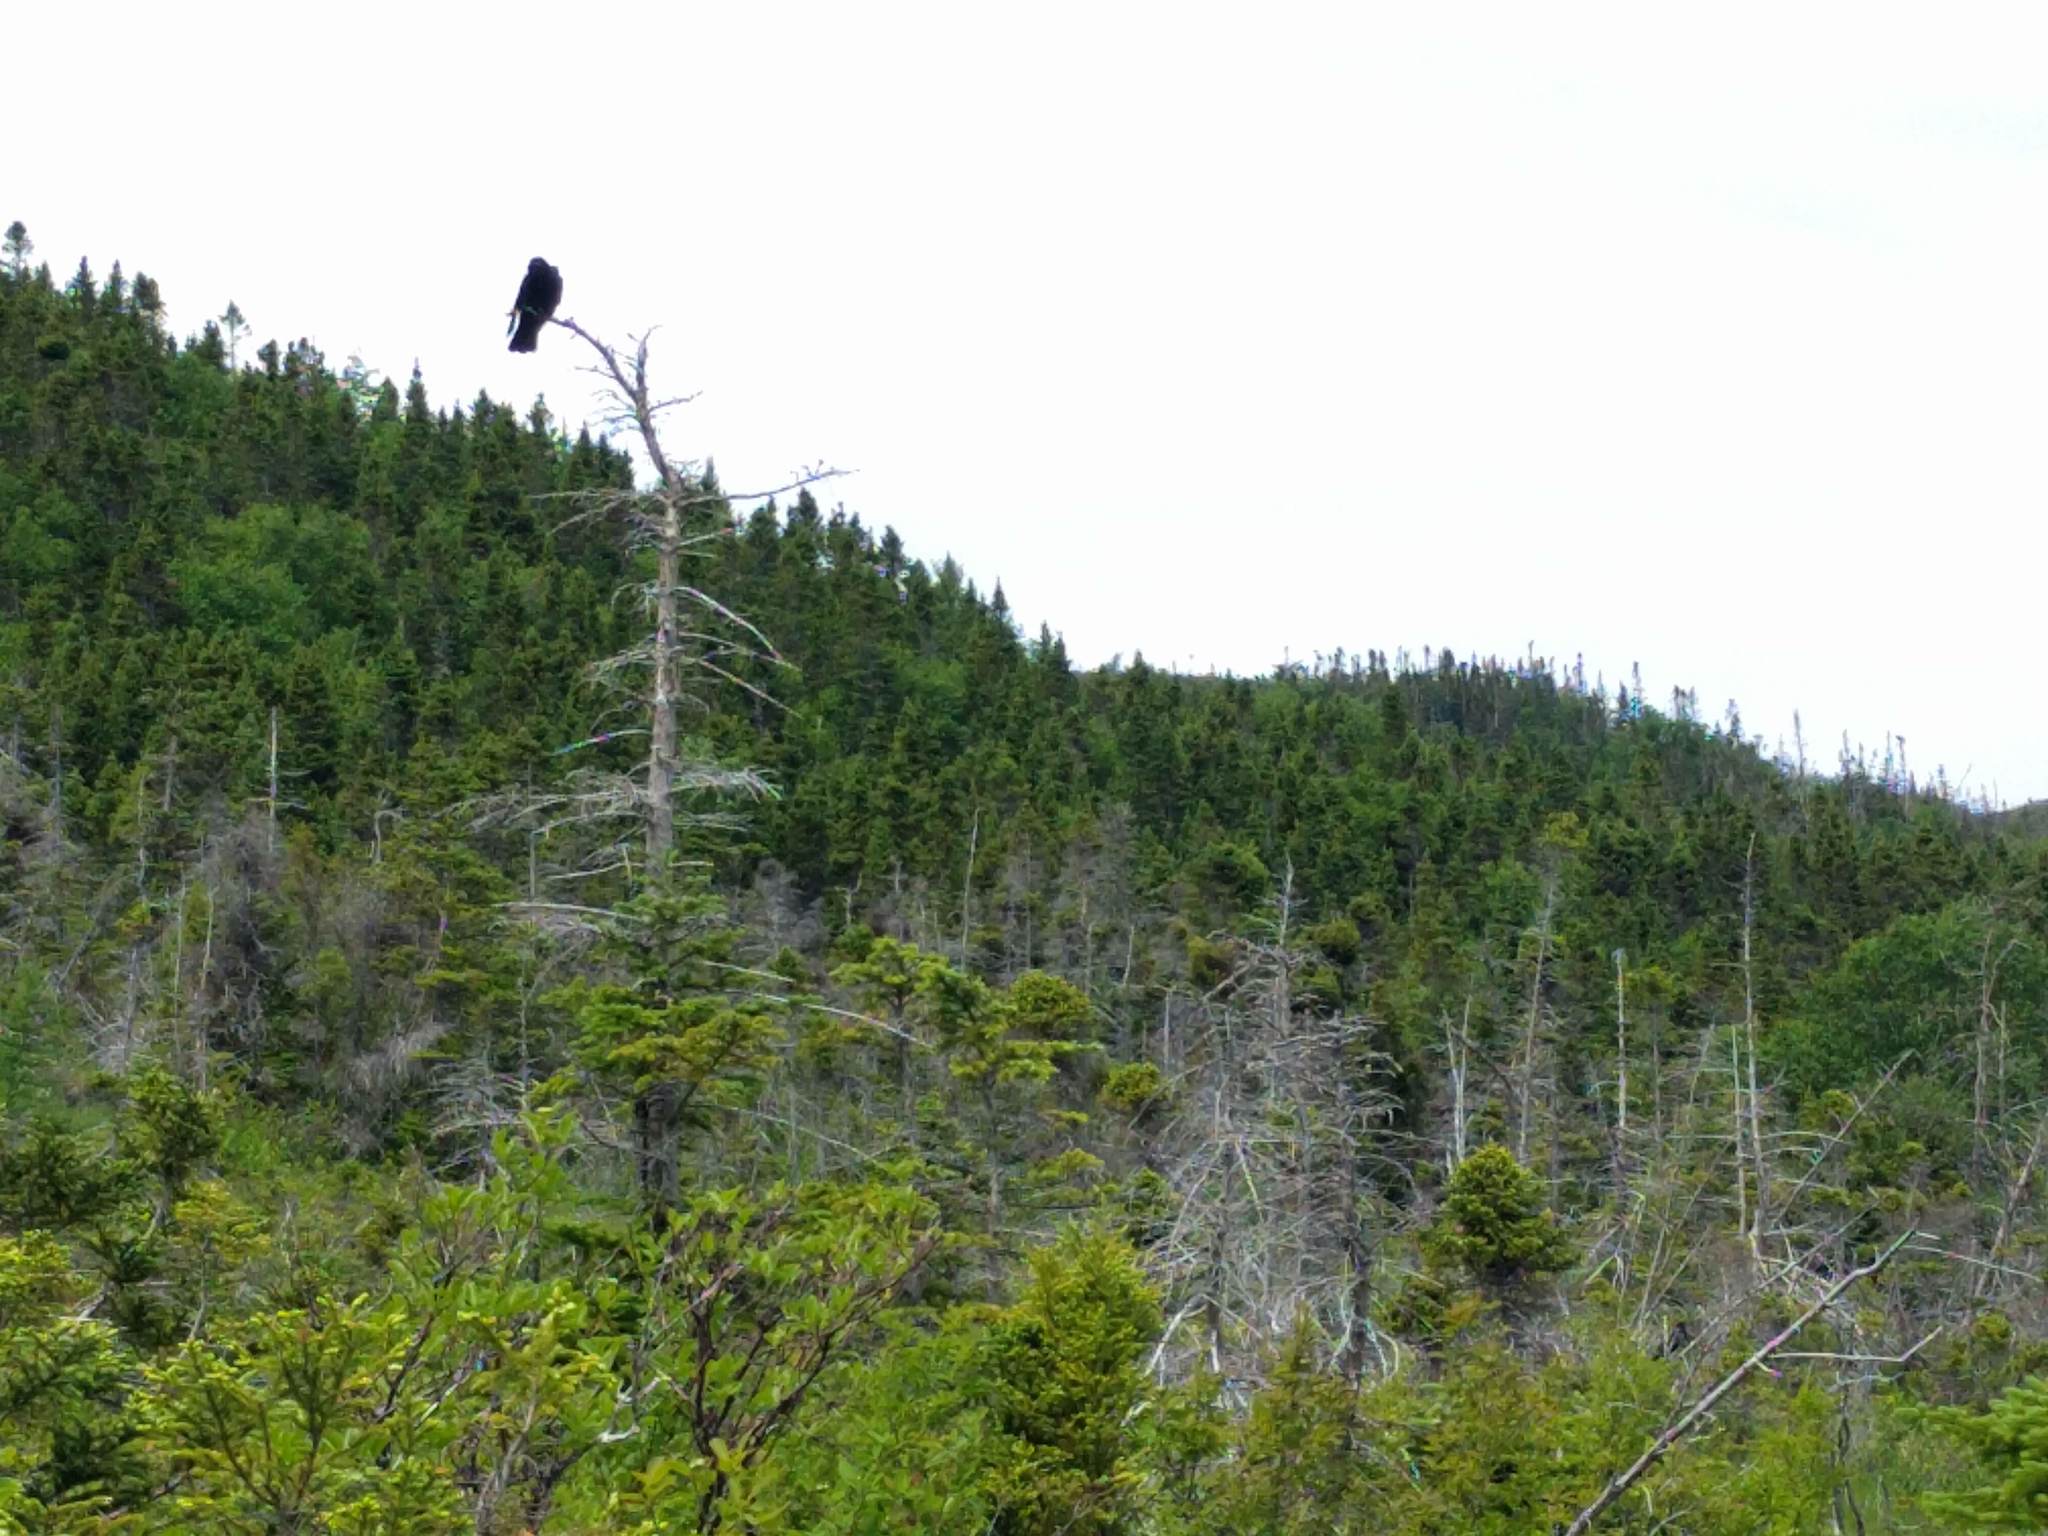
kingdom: Animalia
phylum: Chordata
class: Aves
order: Passeriformes
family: Corvidae
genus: Corvus
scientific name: Corvus brachyrhynchos
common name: American crow
